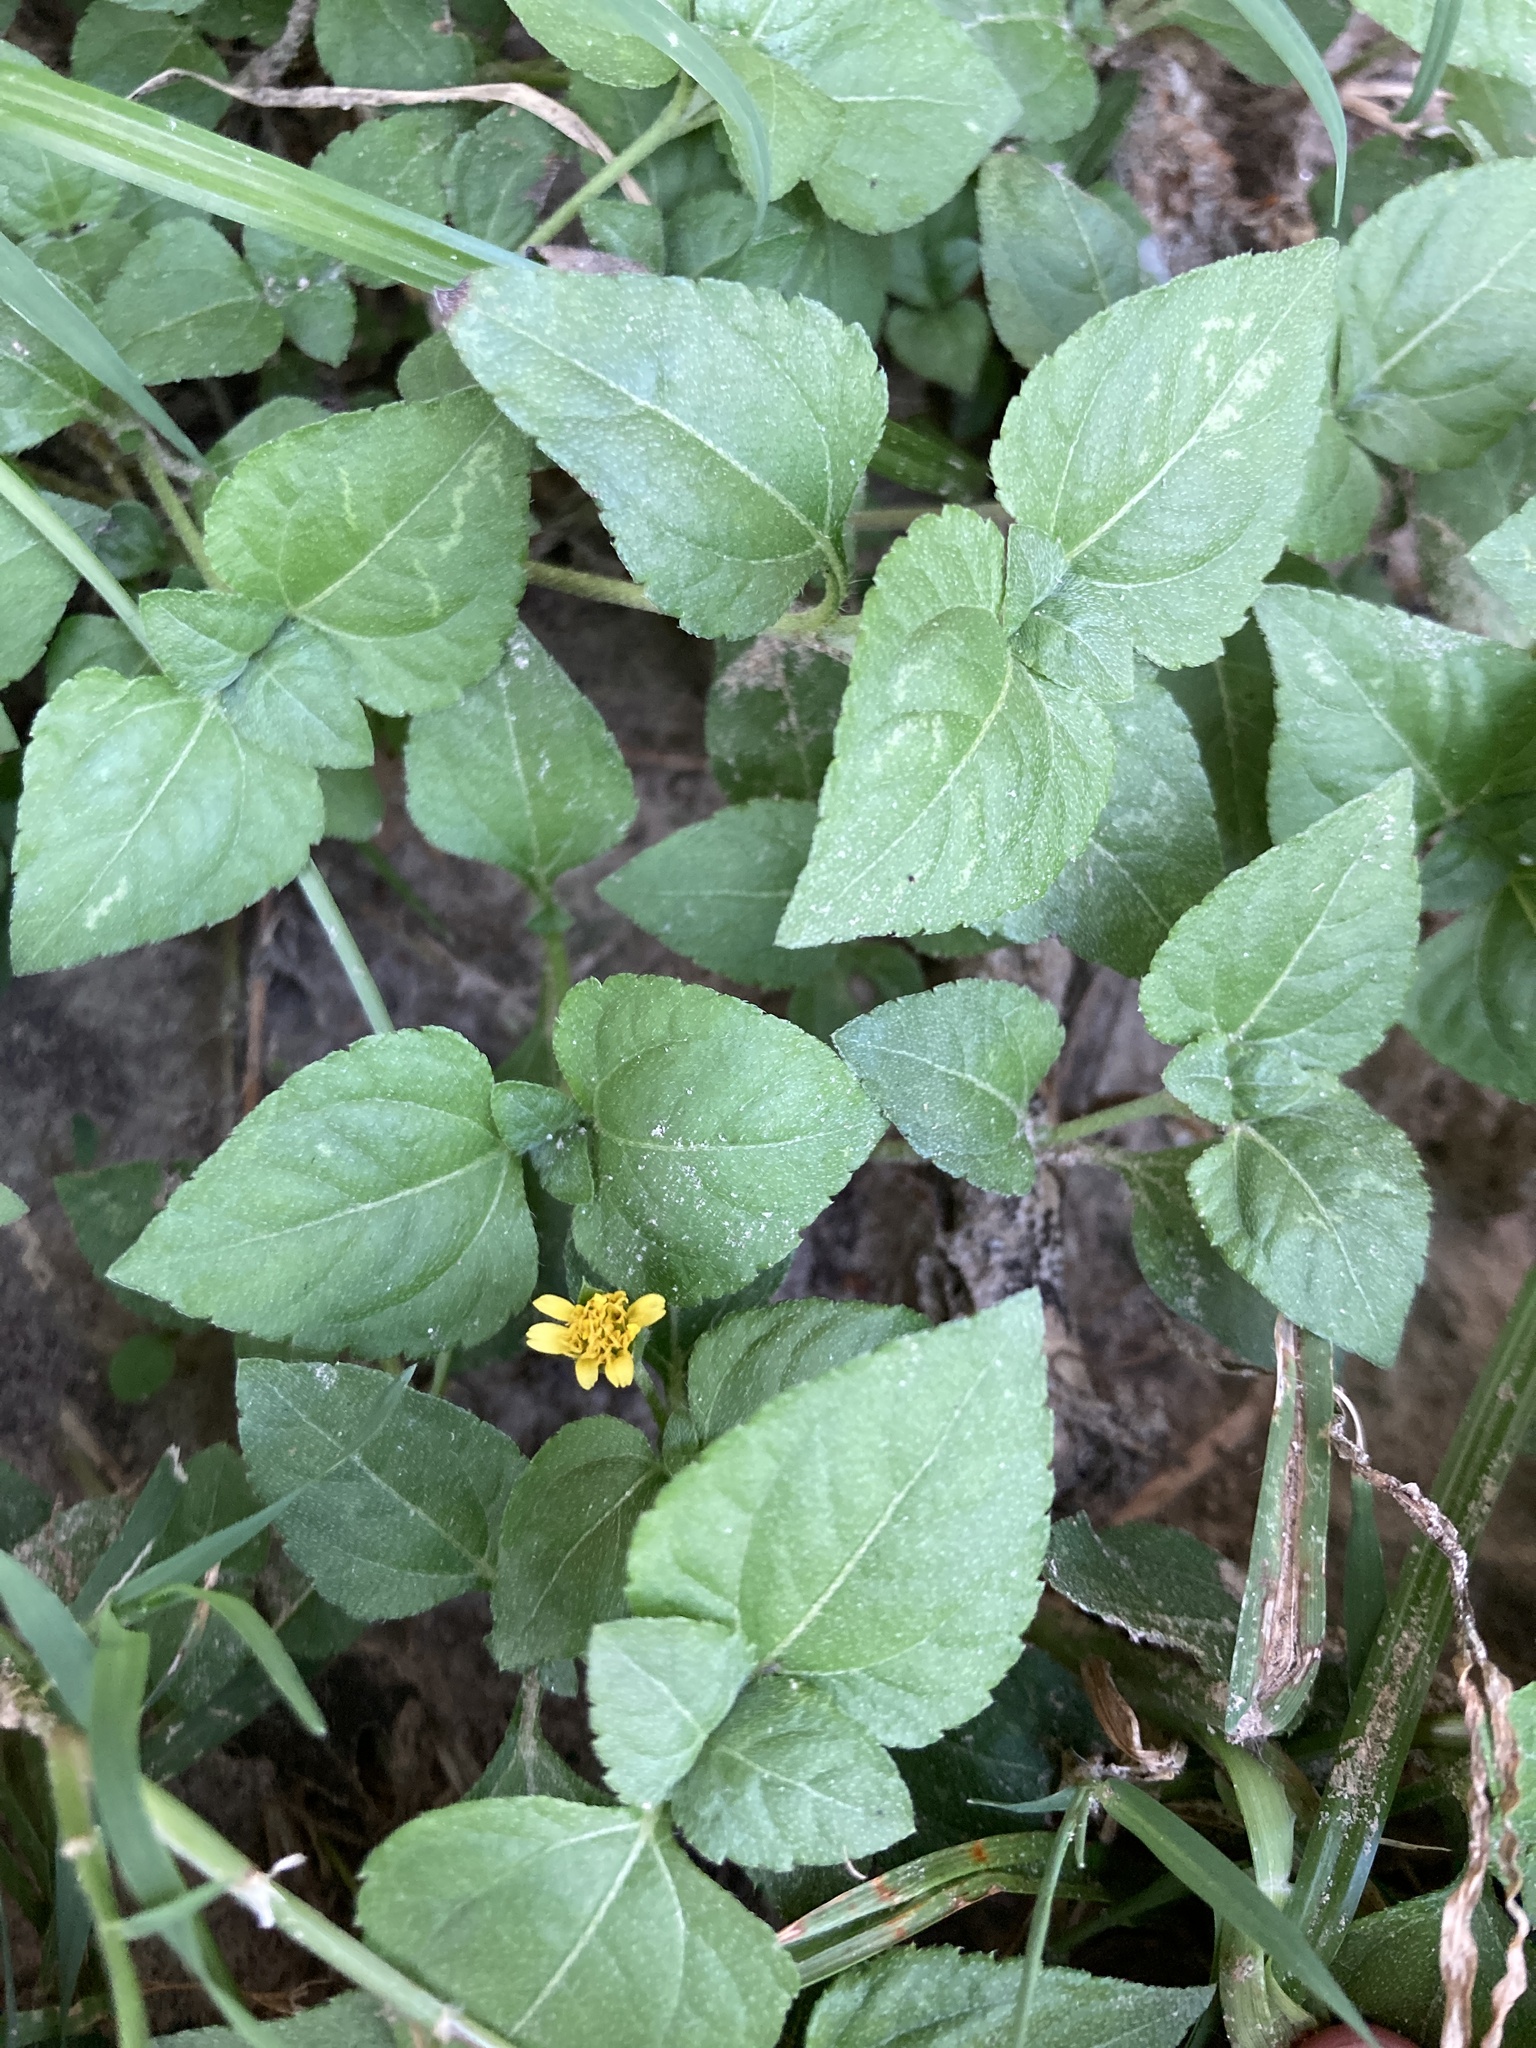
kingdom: Plantae
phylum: Tracheophyta
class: Magnoliopsida
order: Asterales
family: Asteraceae
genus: Calyptocarpus
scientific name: Calyptocarpus vialis
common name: Straggler daisy
